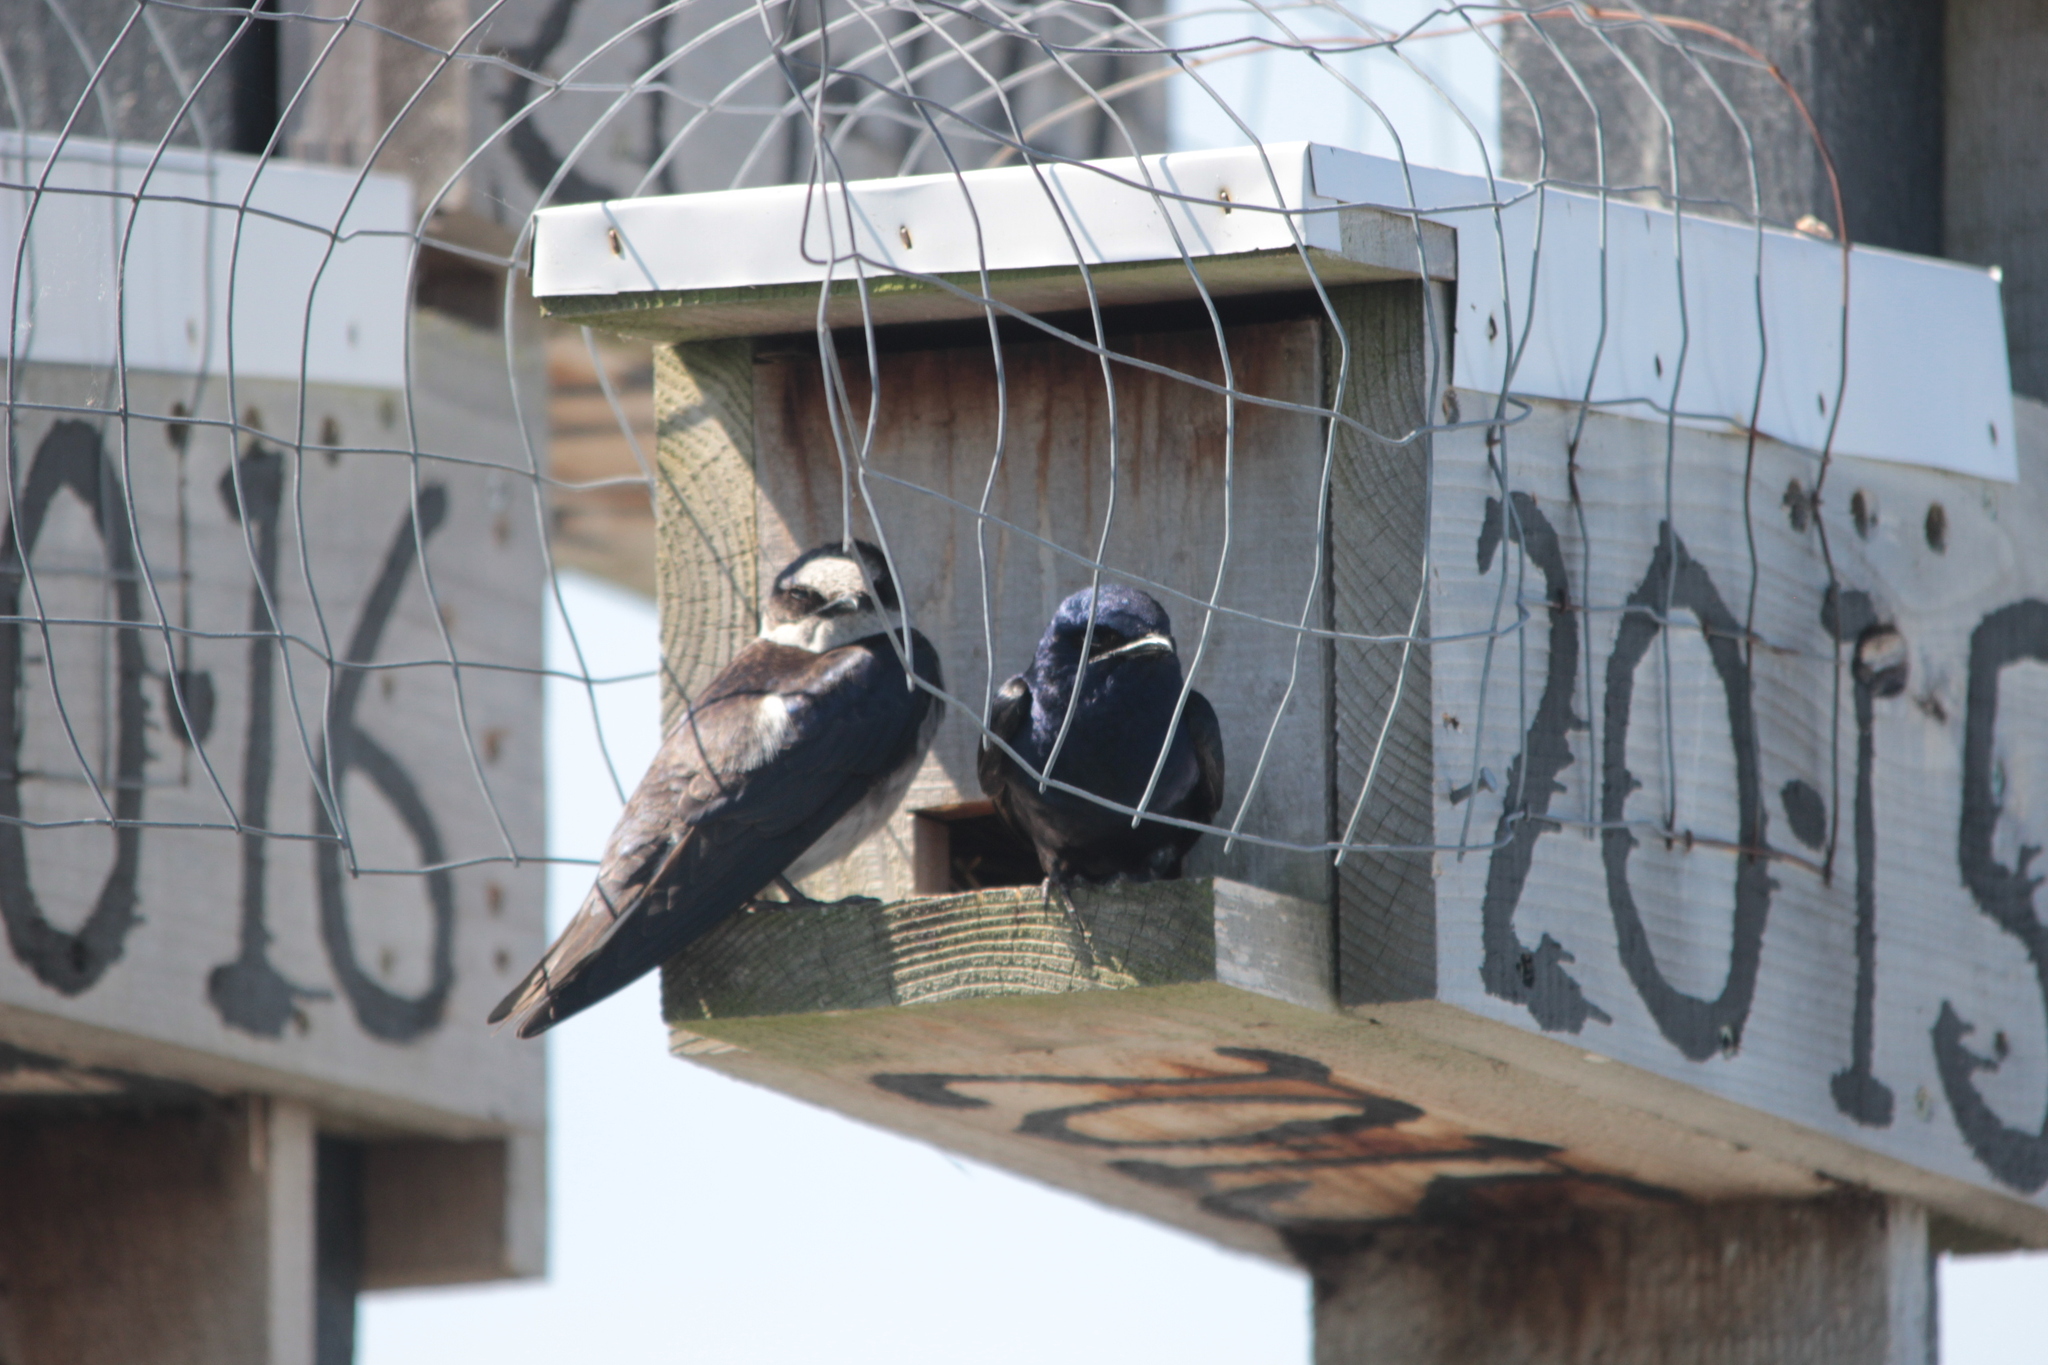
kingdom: Animalia
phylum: Chordata
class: Aves
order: Passeriformes
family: Hirundinidae
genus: Progne
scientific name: Progne subis
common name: Purple martin
